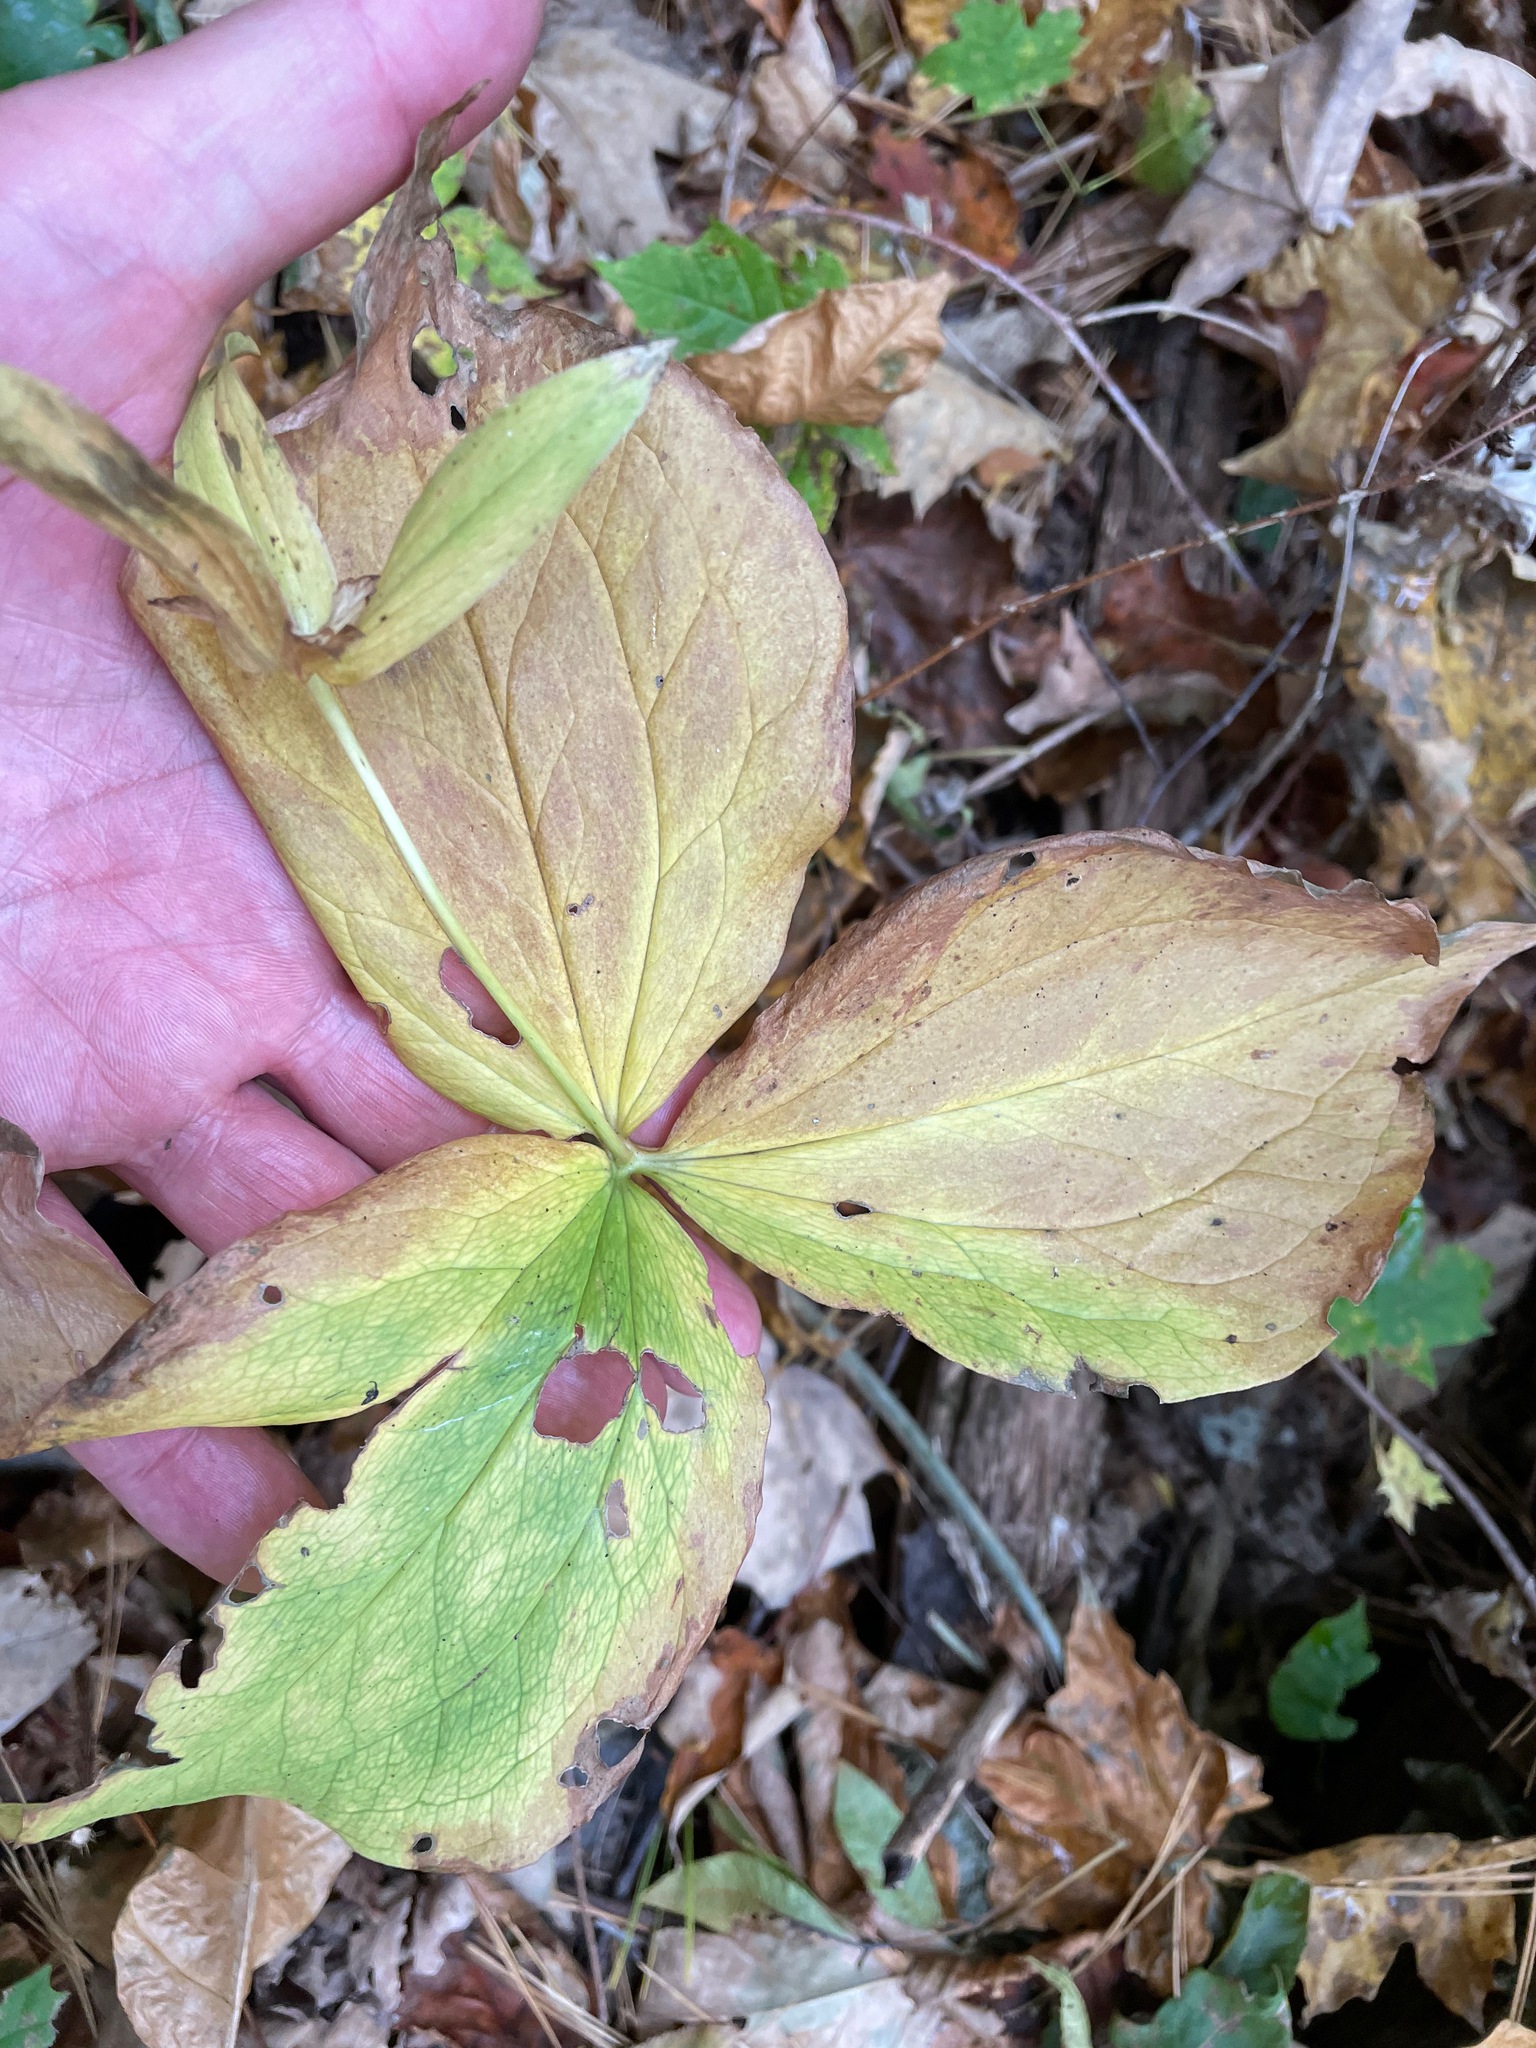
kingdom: Plantae
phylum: Tracheophyta
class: Liliopsida
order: Liliales
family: Melanthiaceae
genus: Trillium
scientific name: Trillium grandiflorum
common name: Great white trillium
